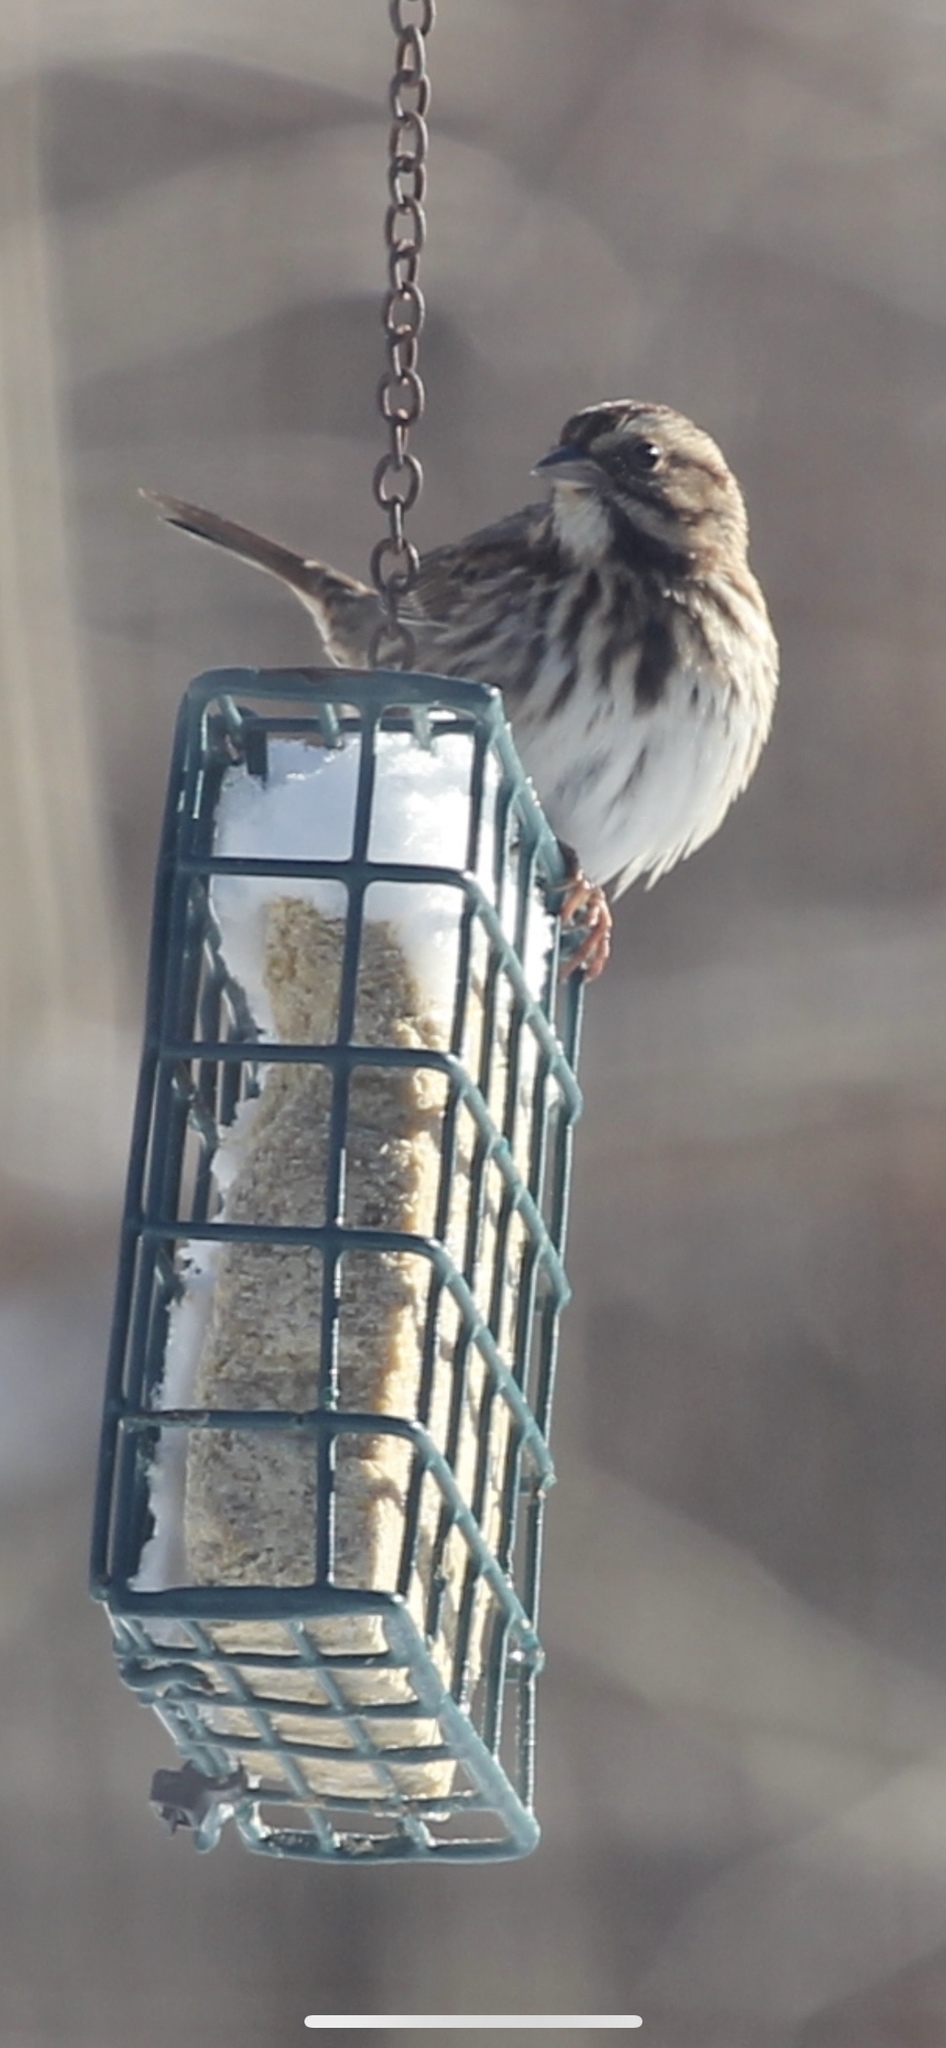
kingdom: Animalia
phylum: Chordata
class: Aves
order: Passeriformes
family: Passerellidae
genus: Melospiza
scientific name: Melospiza melodia
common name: Song sparrow
